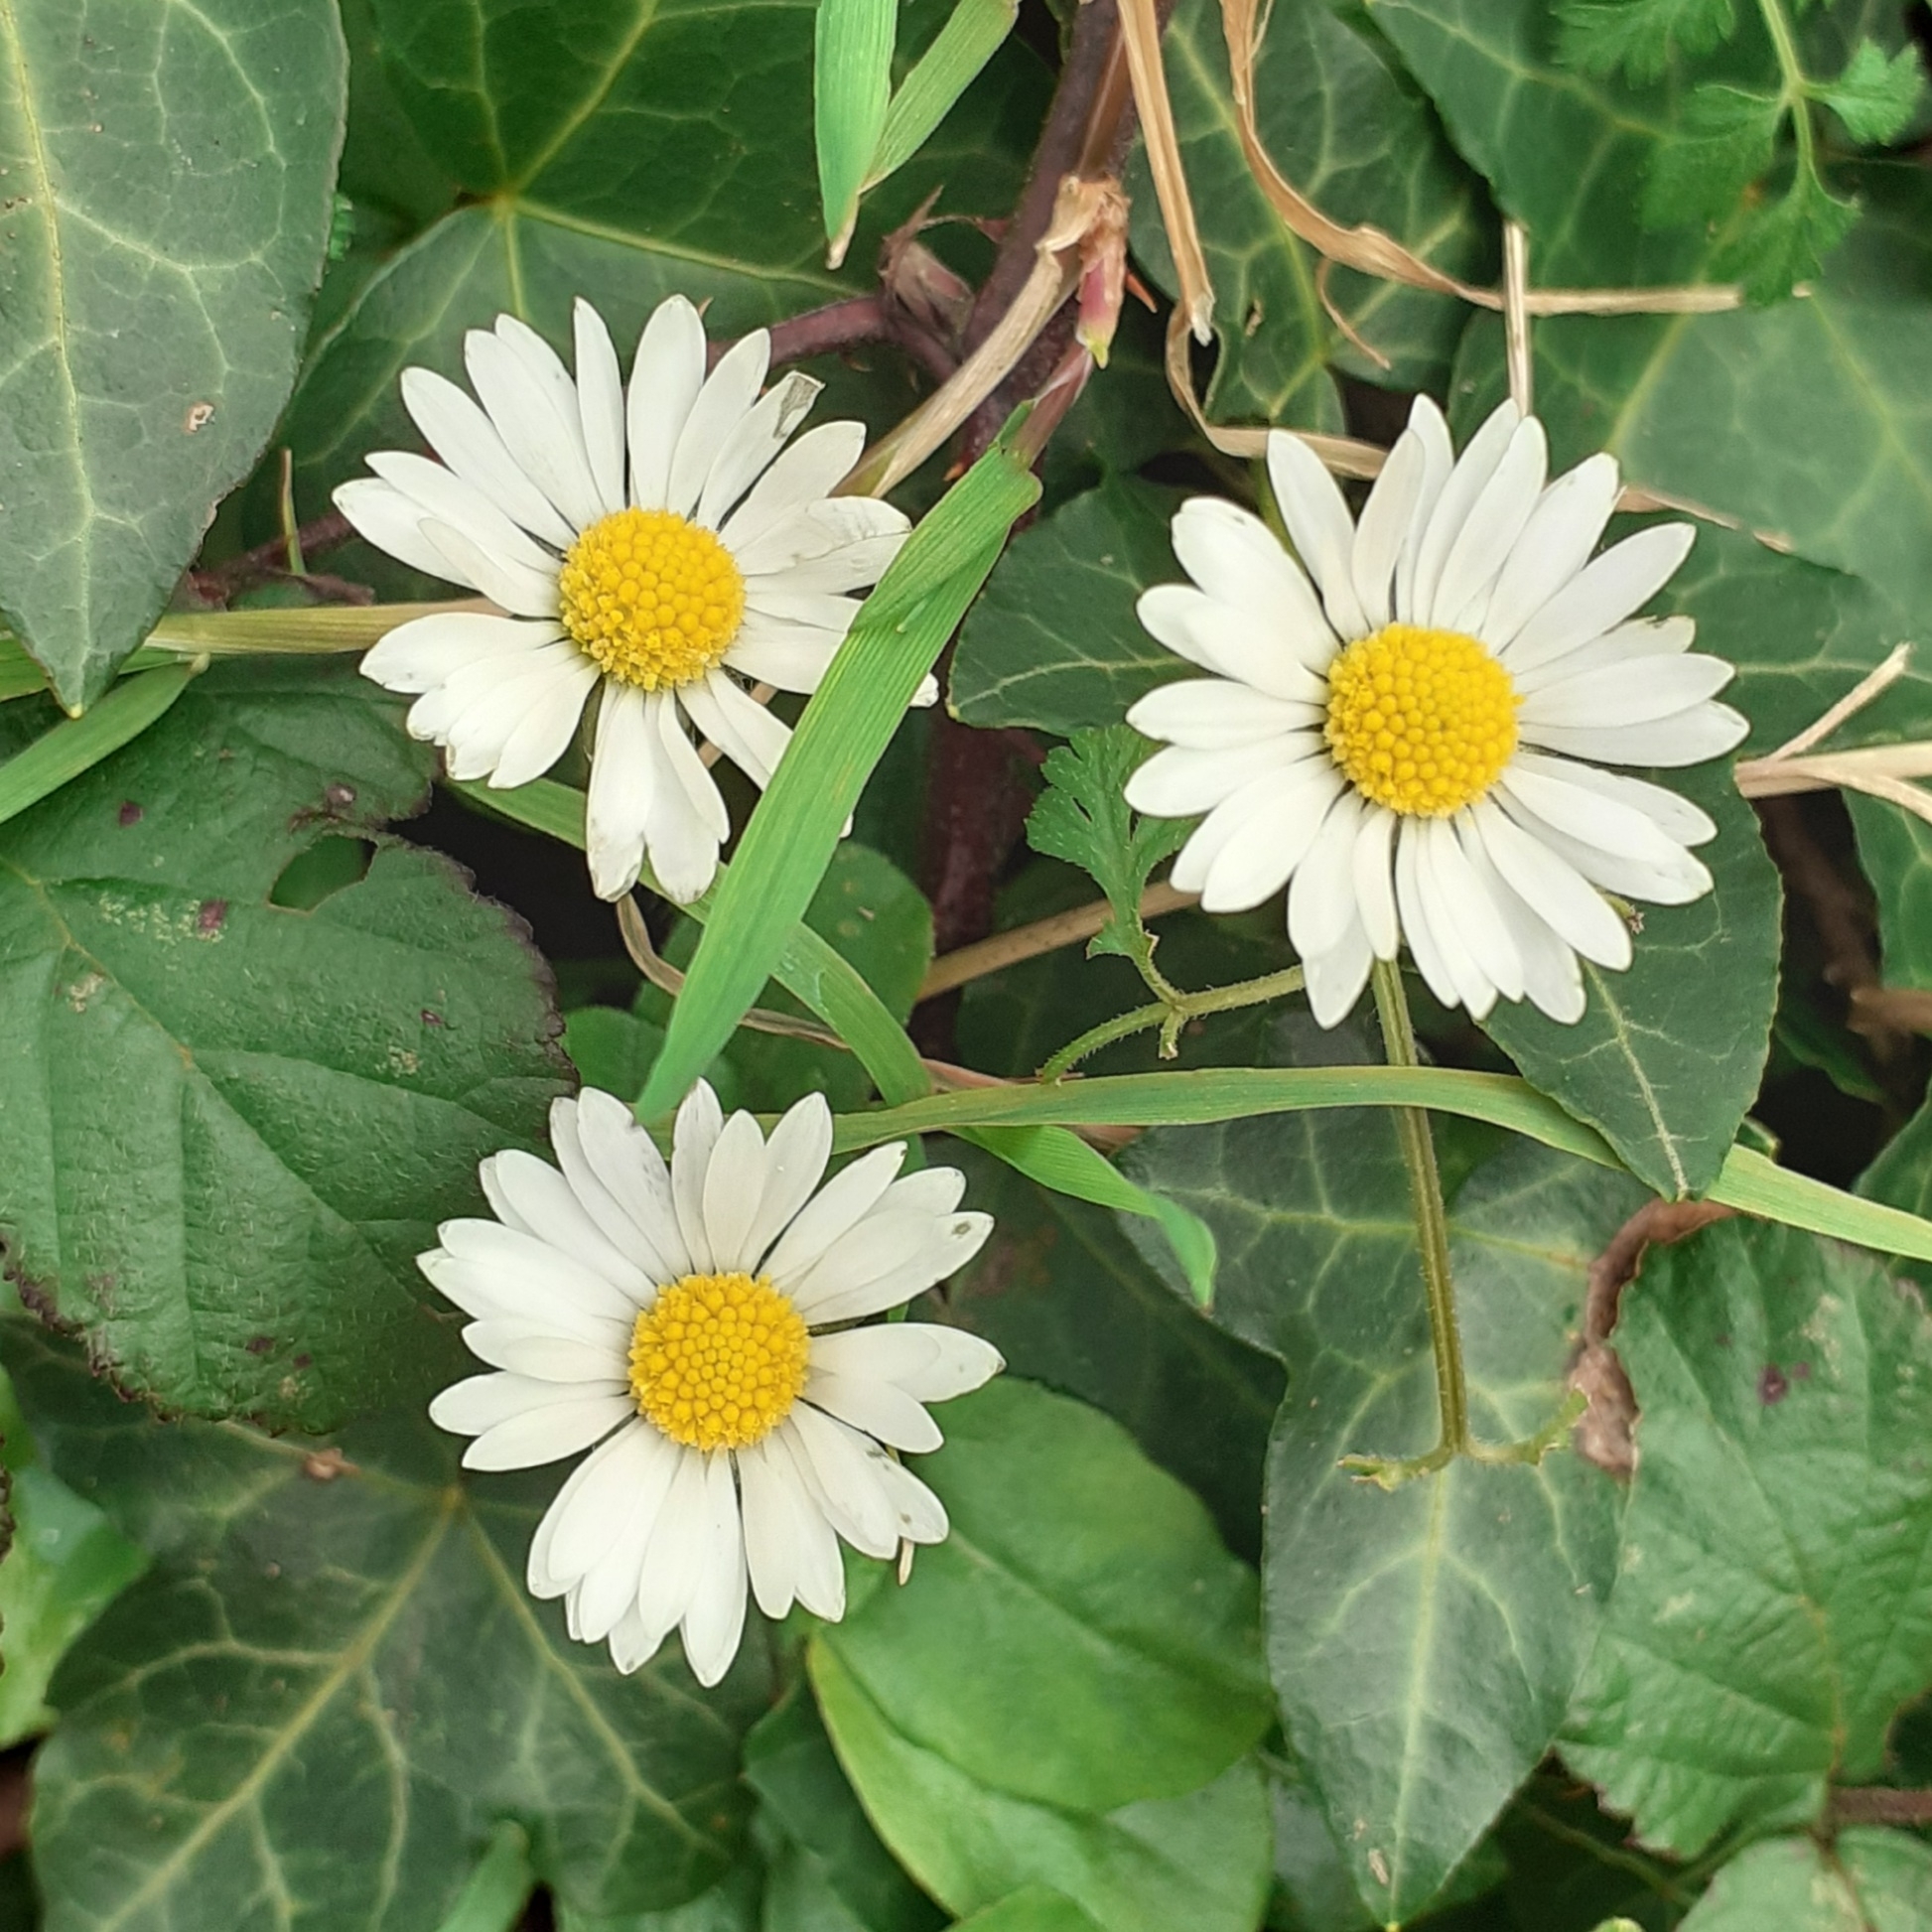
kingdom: Plantae
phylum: Tracheophyta
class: Magnoliopsida
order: Asterales
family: Asteraceae
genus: Bellis
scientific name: Bellis perennis
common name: Lawndaisy
